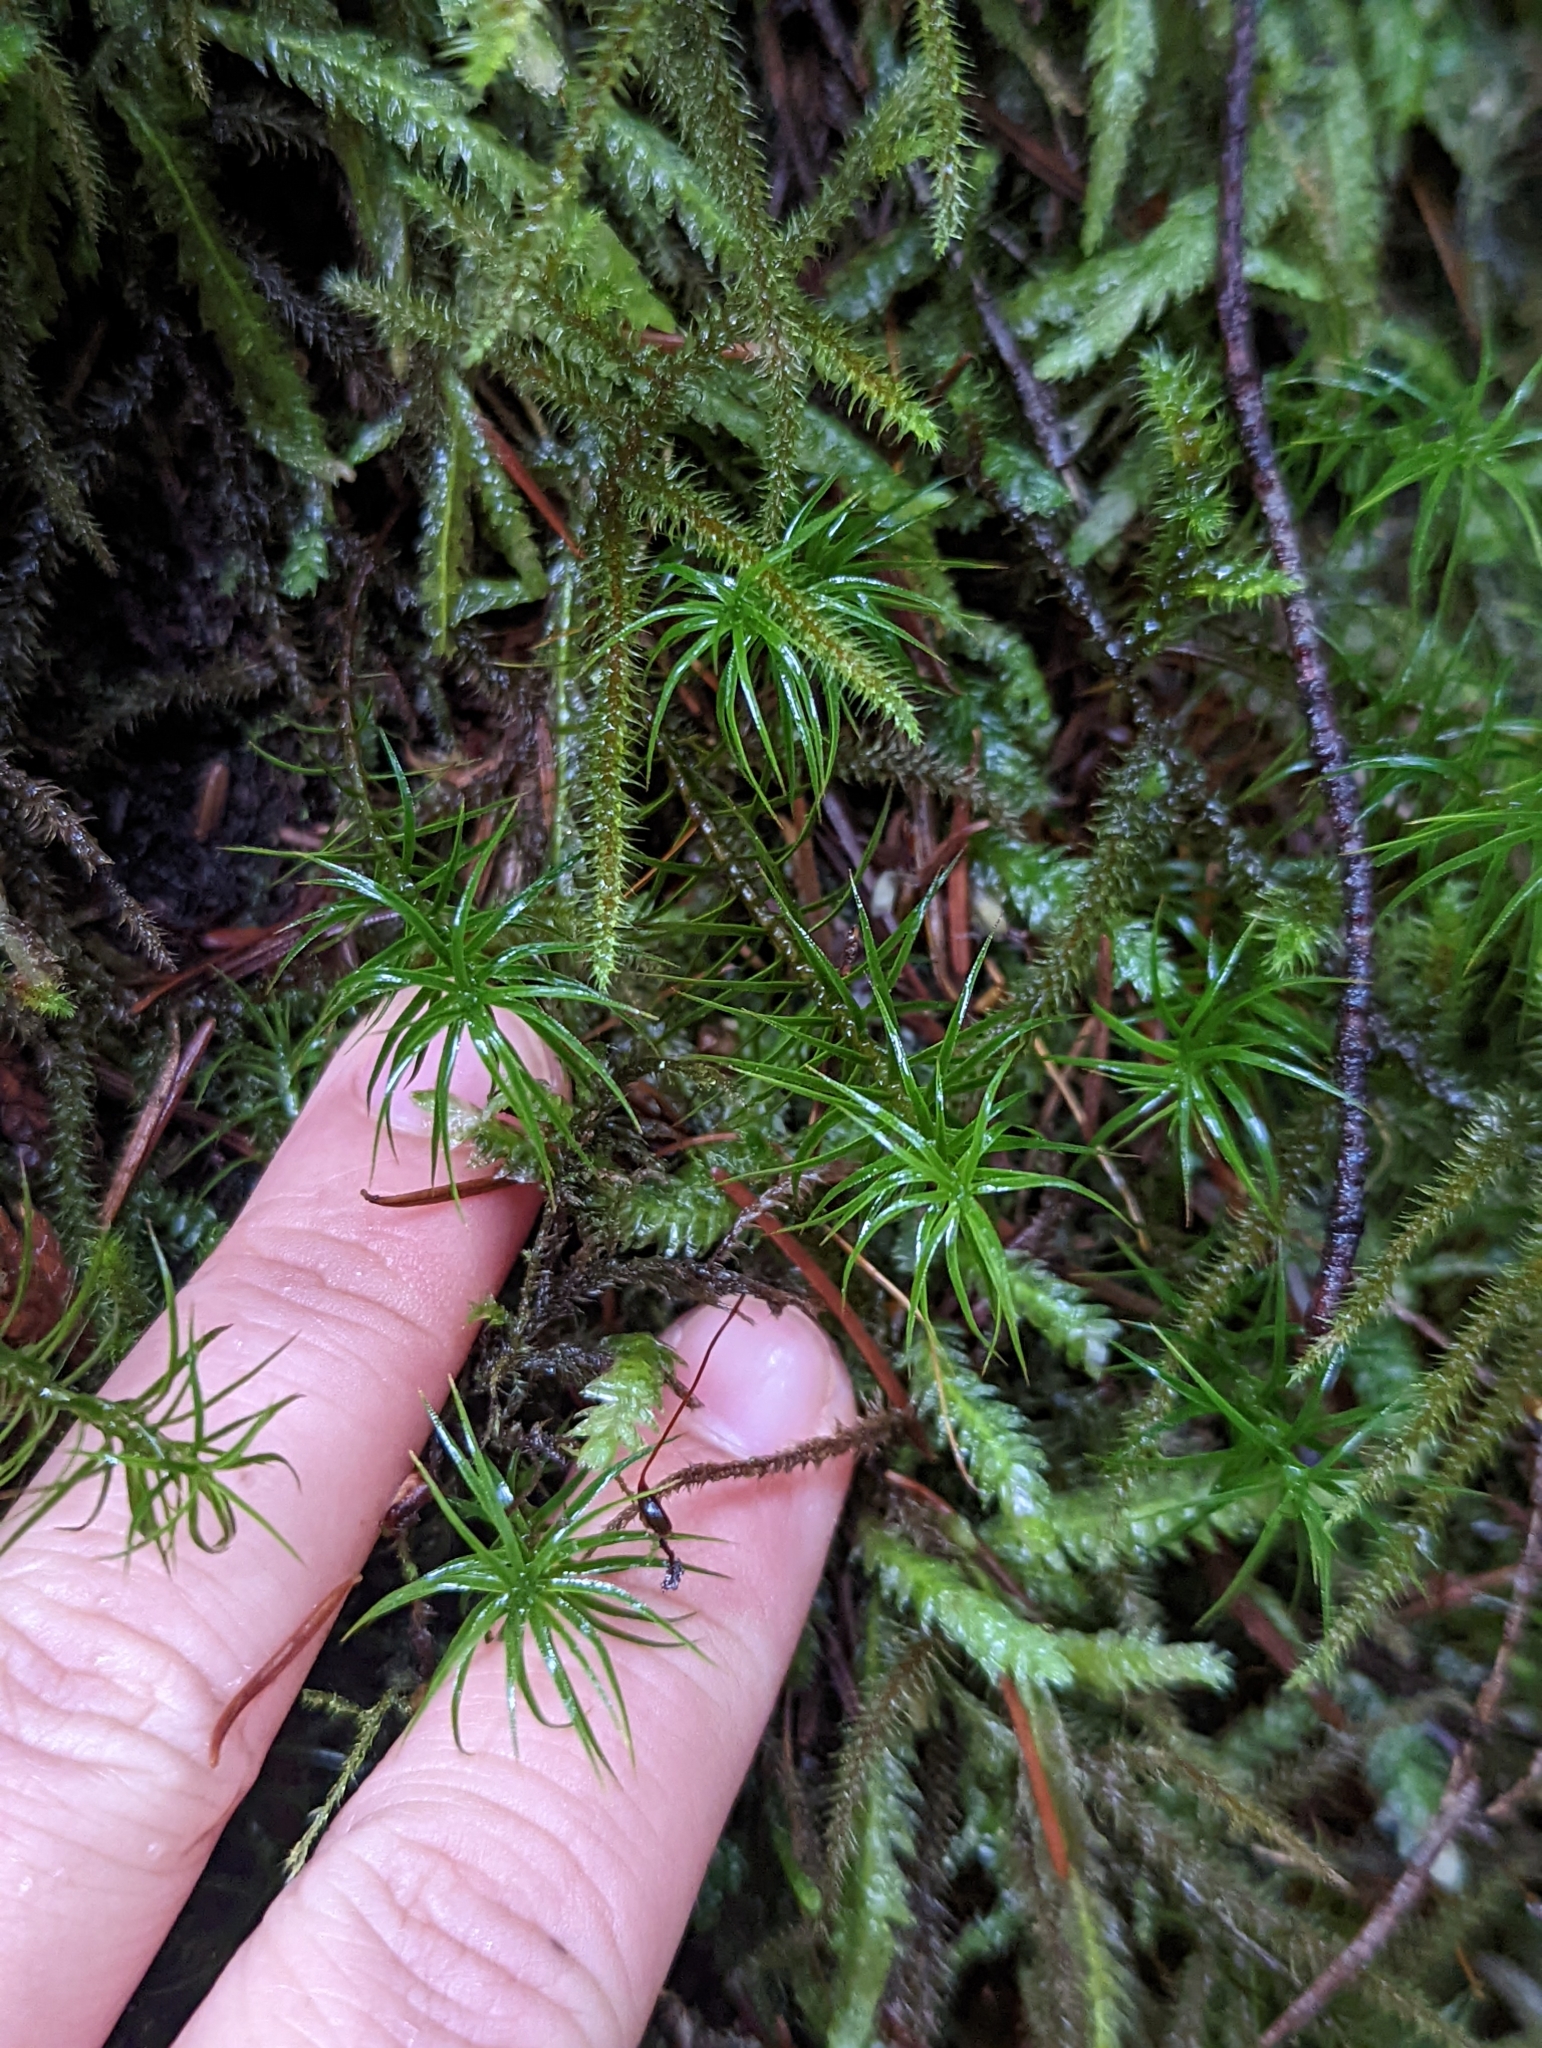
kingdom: Plantae
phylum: Bryophyta
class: Polytrichopsida
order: Polytrichales
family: Polytrichaceae
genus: Polytrichastrum
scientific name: Polytrichastrum alpinum
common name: Alpine haircap
